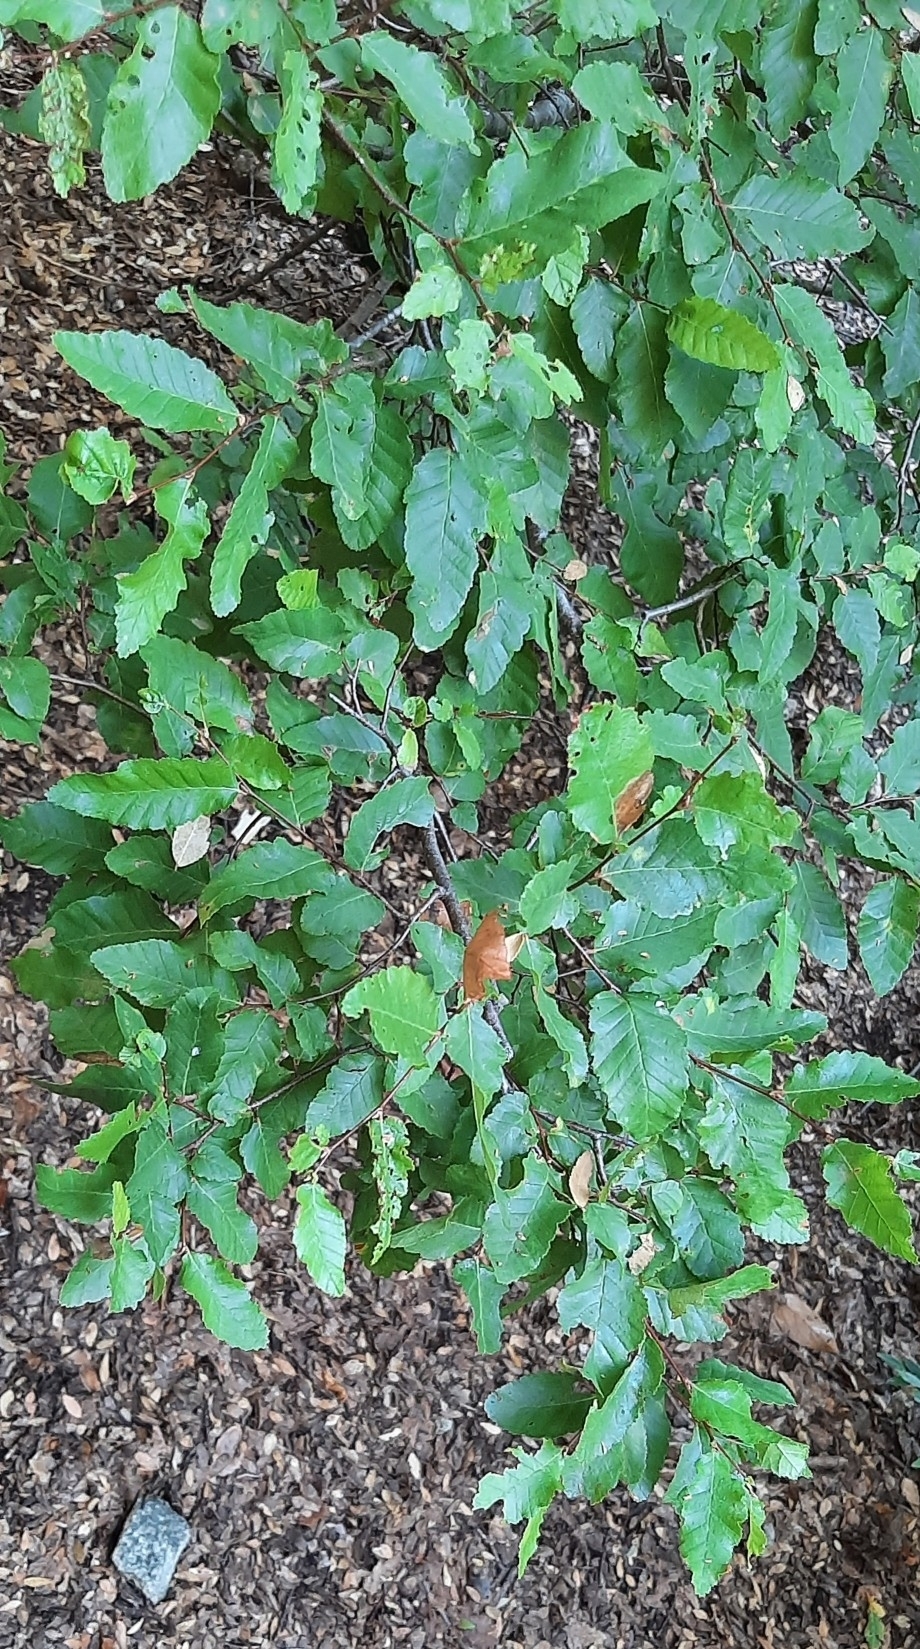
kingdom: Plantae
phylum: Tracheophyta
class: Magnoliopsida
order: Fagales
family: Nothofagaceae
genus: Nothofagus
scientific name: Nothofagus obliqua
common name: Roble beech
